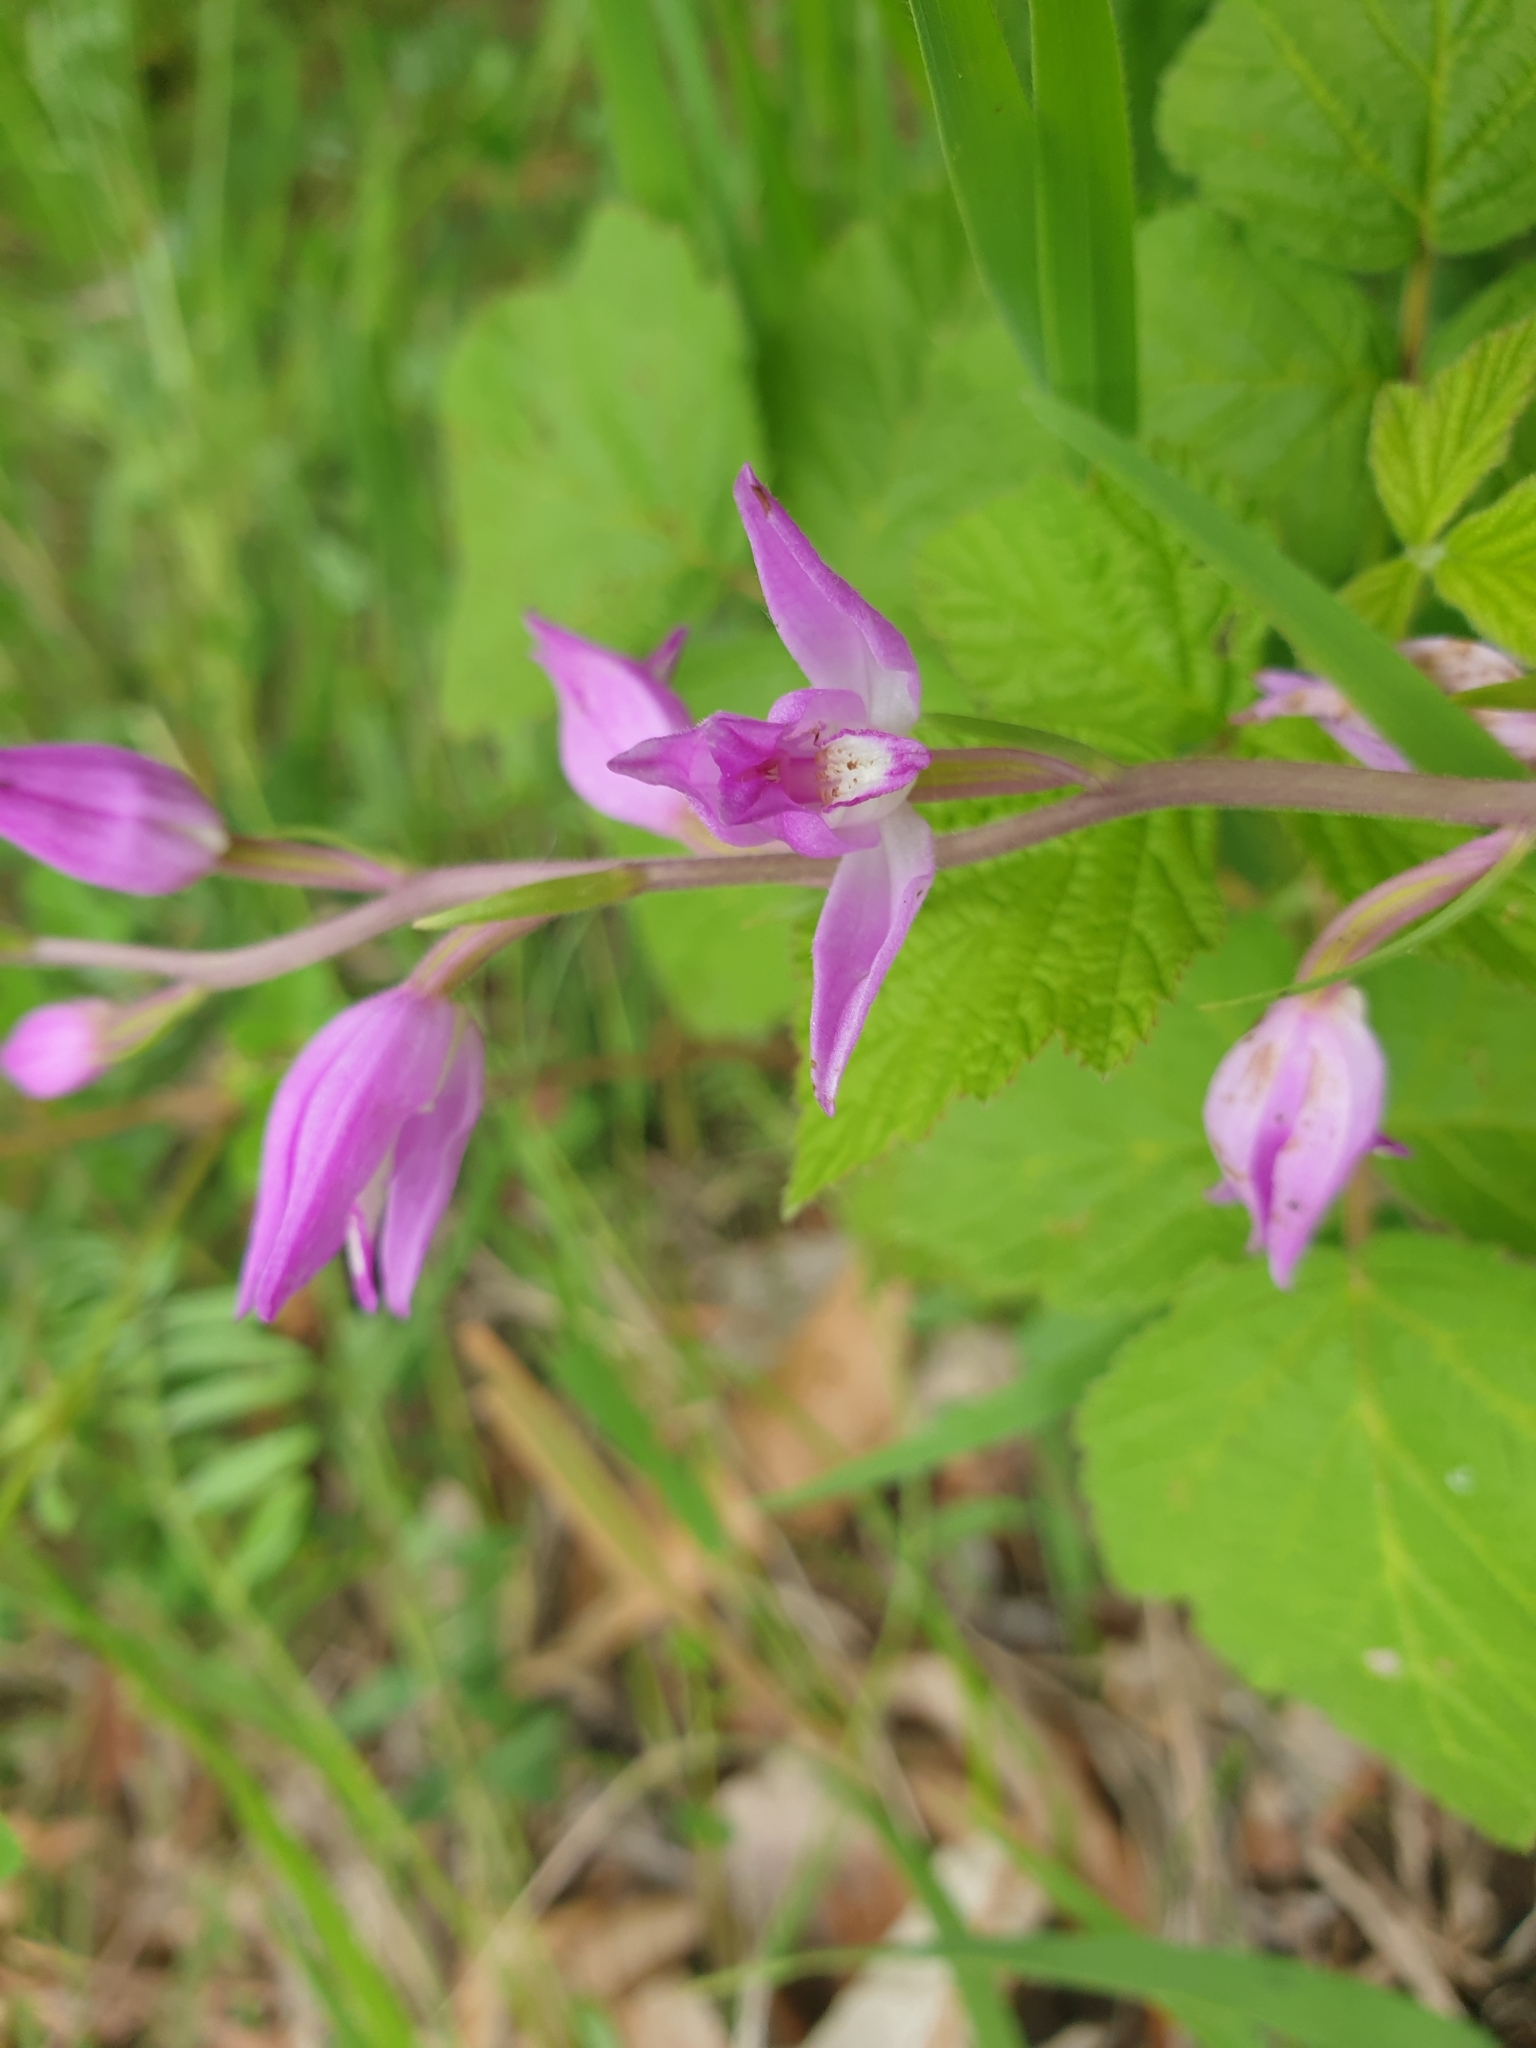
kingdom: Plantae
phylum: Tracheophyta
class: Liliopsida
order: Asparagales
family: Orchidaceae
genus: Cephalanthera
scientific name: Cephalanthera rubra
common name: Red helleborine
